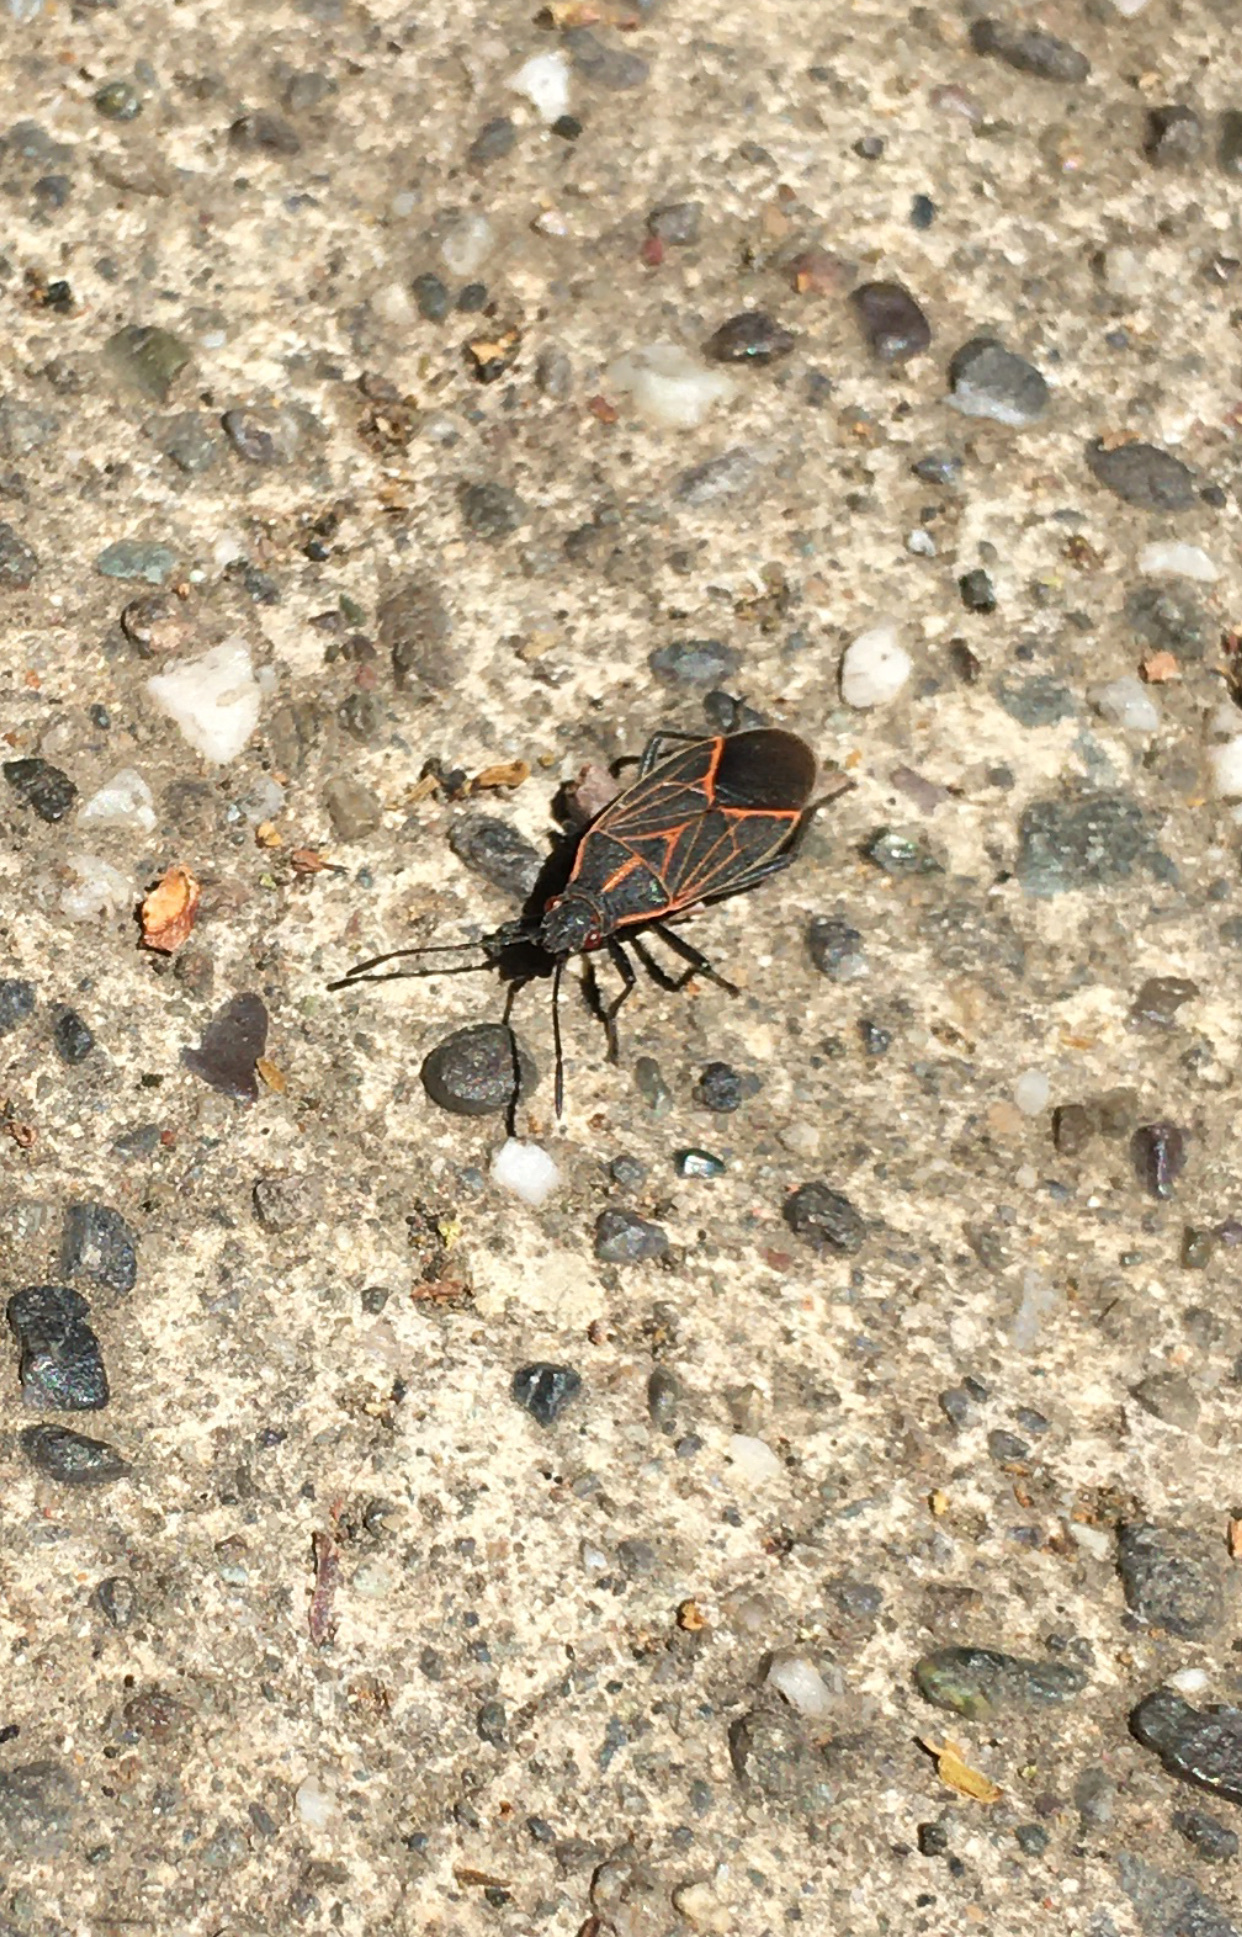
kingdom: Animalia
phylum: Arthropoda
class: Insecta
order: Hemiptera
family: Rhopalidae
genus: Boisea
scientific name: Boisea rubrolineata
